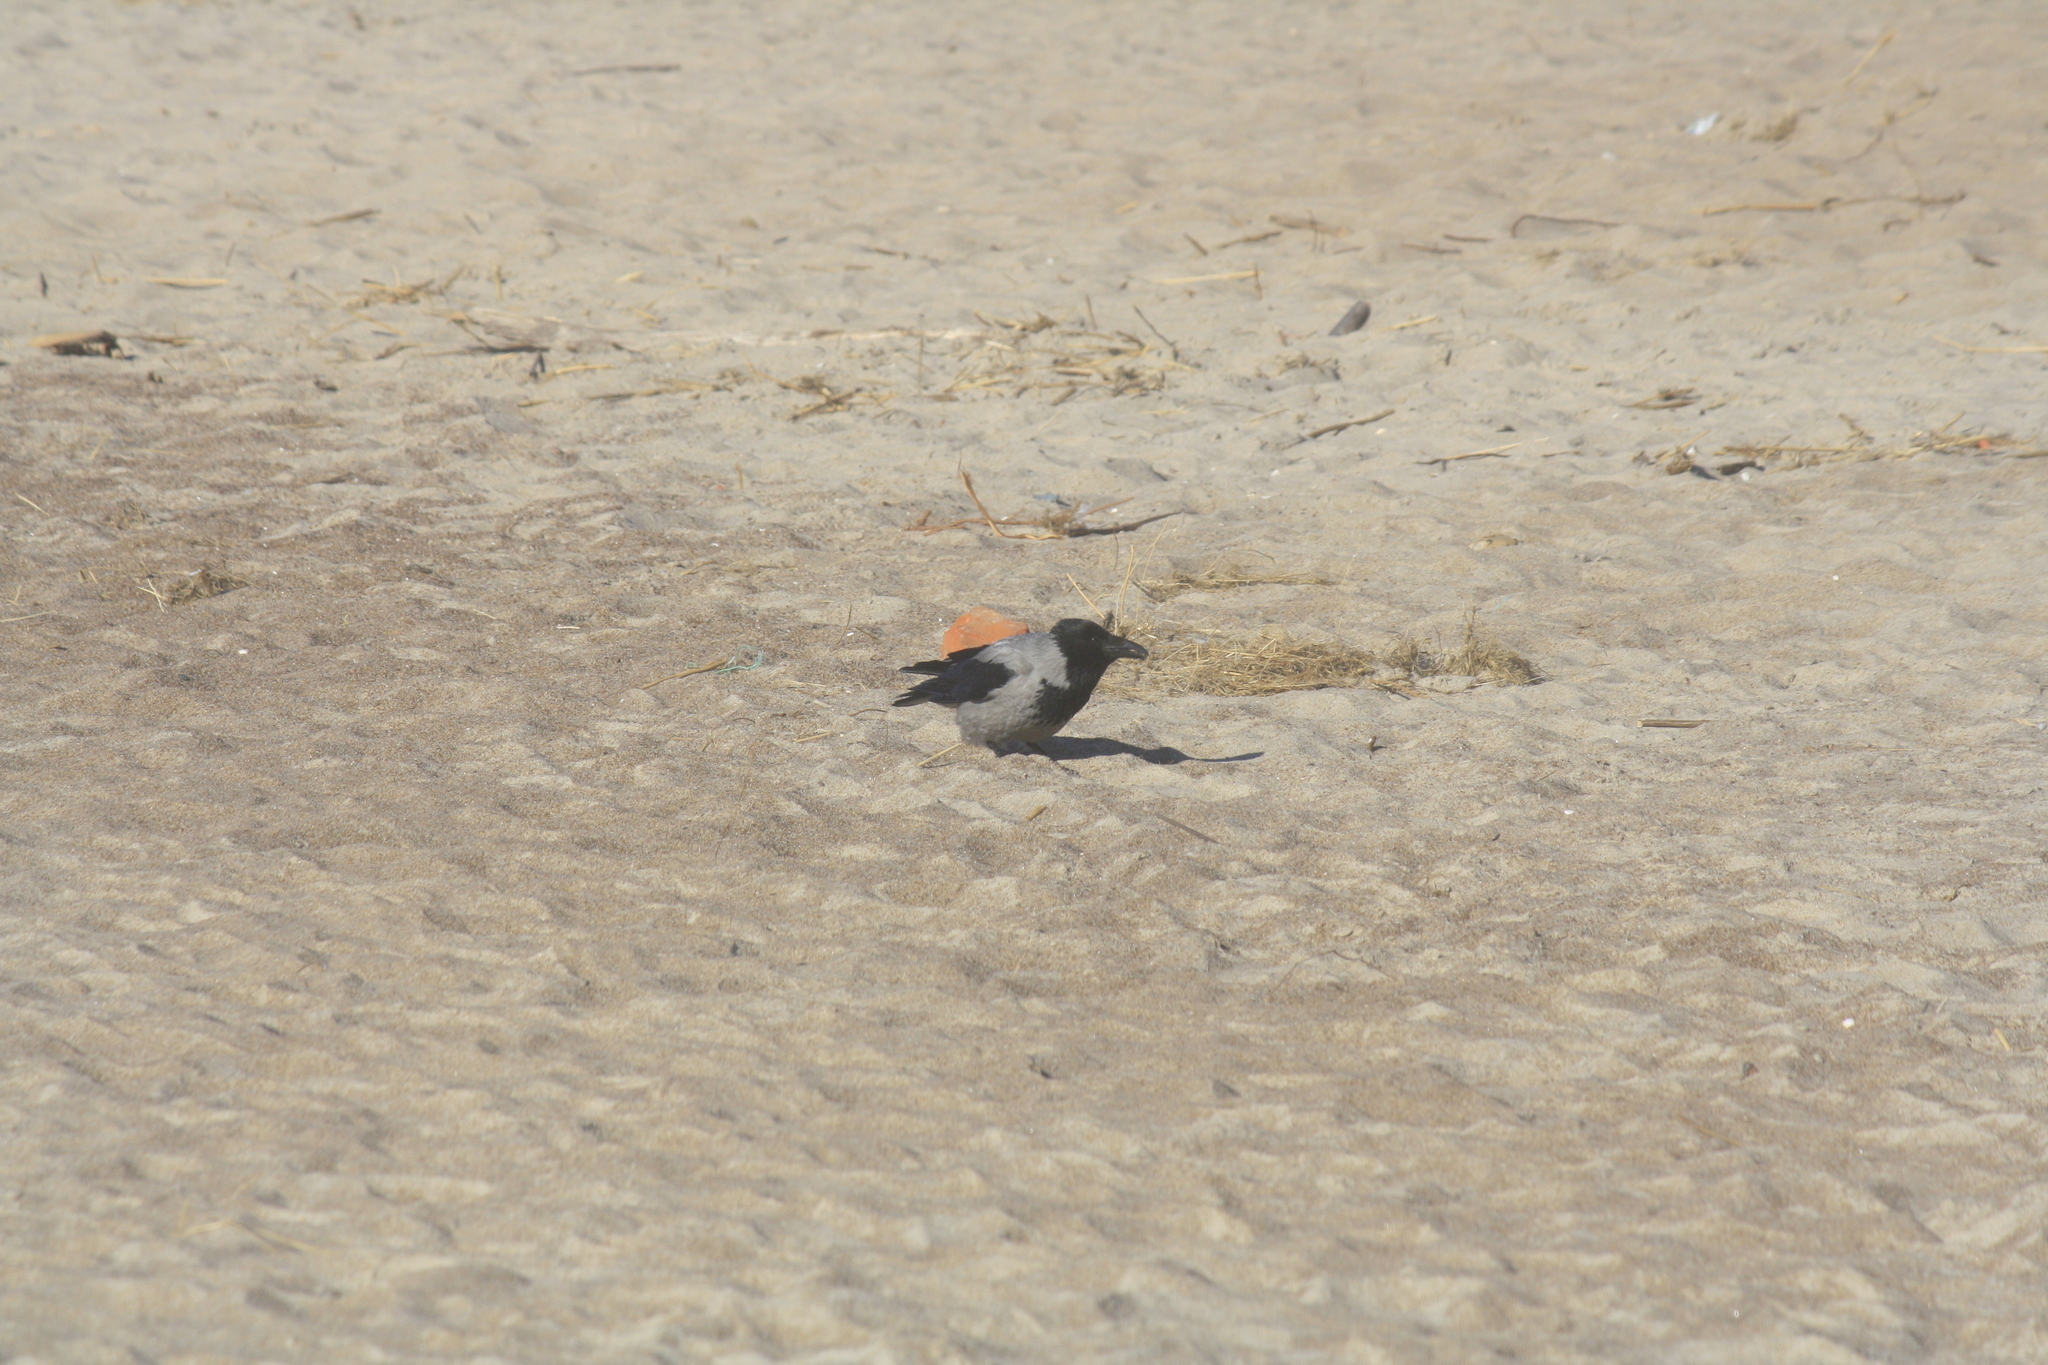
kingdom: Animalia
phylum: Chordata
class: Aves
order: Passeriformes
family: Corvidae
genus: Corvus
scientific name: Corvus cornix
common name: Hooded crow
